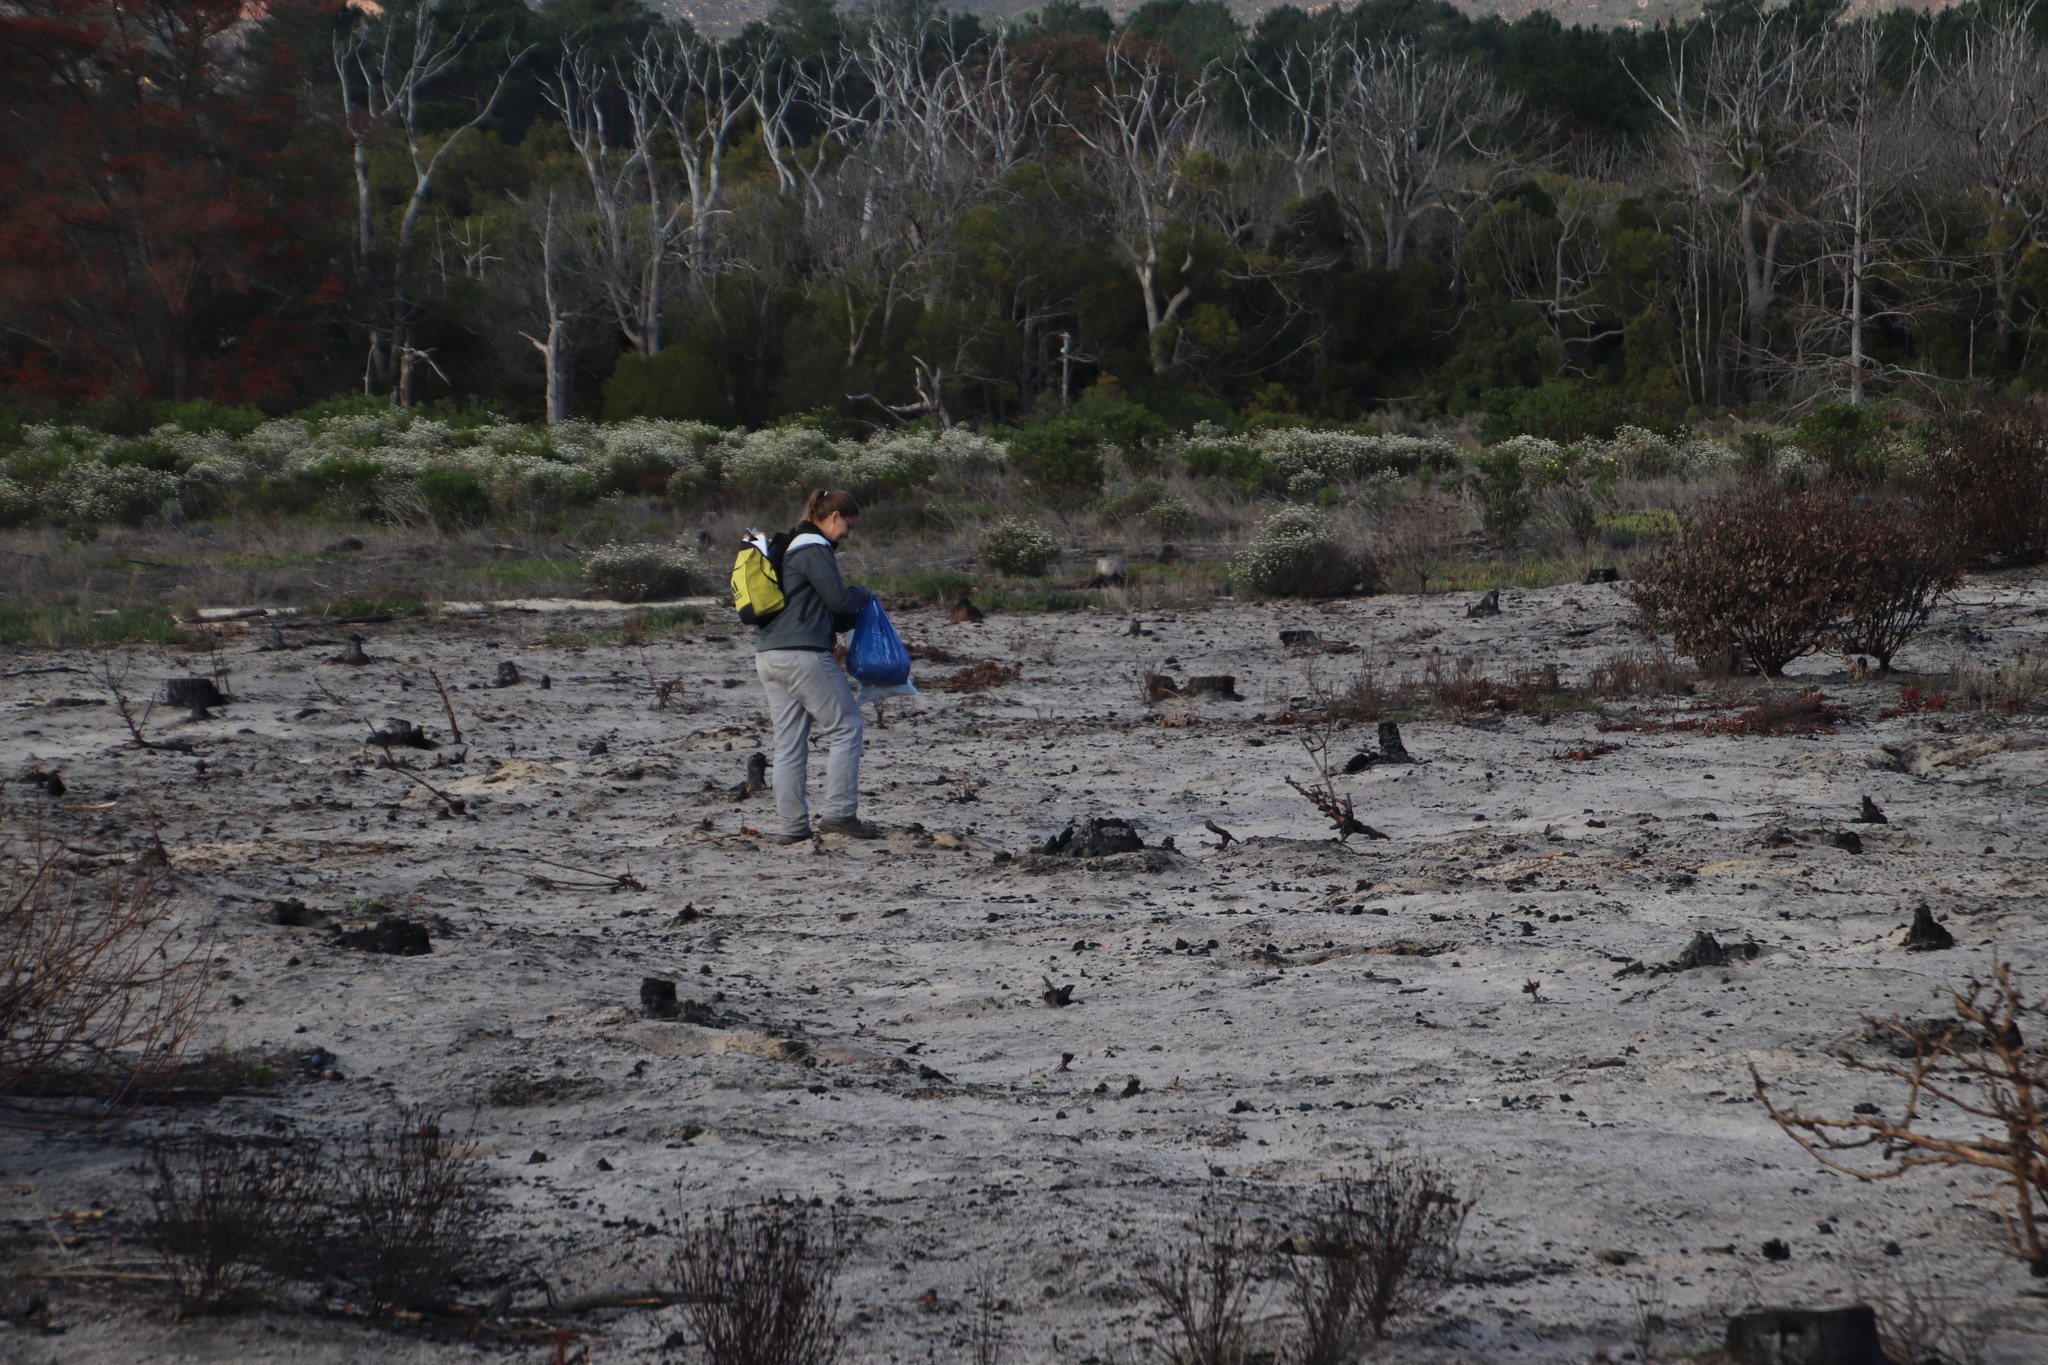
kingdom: Plantae
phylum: Tracheophyta
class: Magnoliopsida
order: Proteales
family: Proteaceae
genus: Protea
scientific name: Protea repens
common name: Sugarbush
